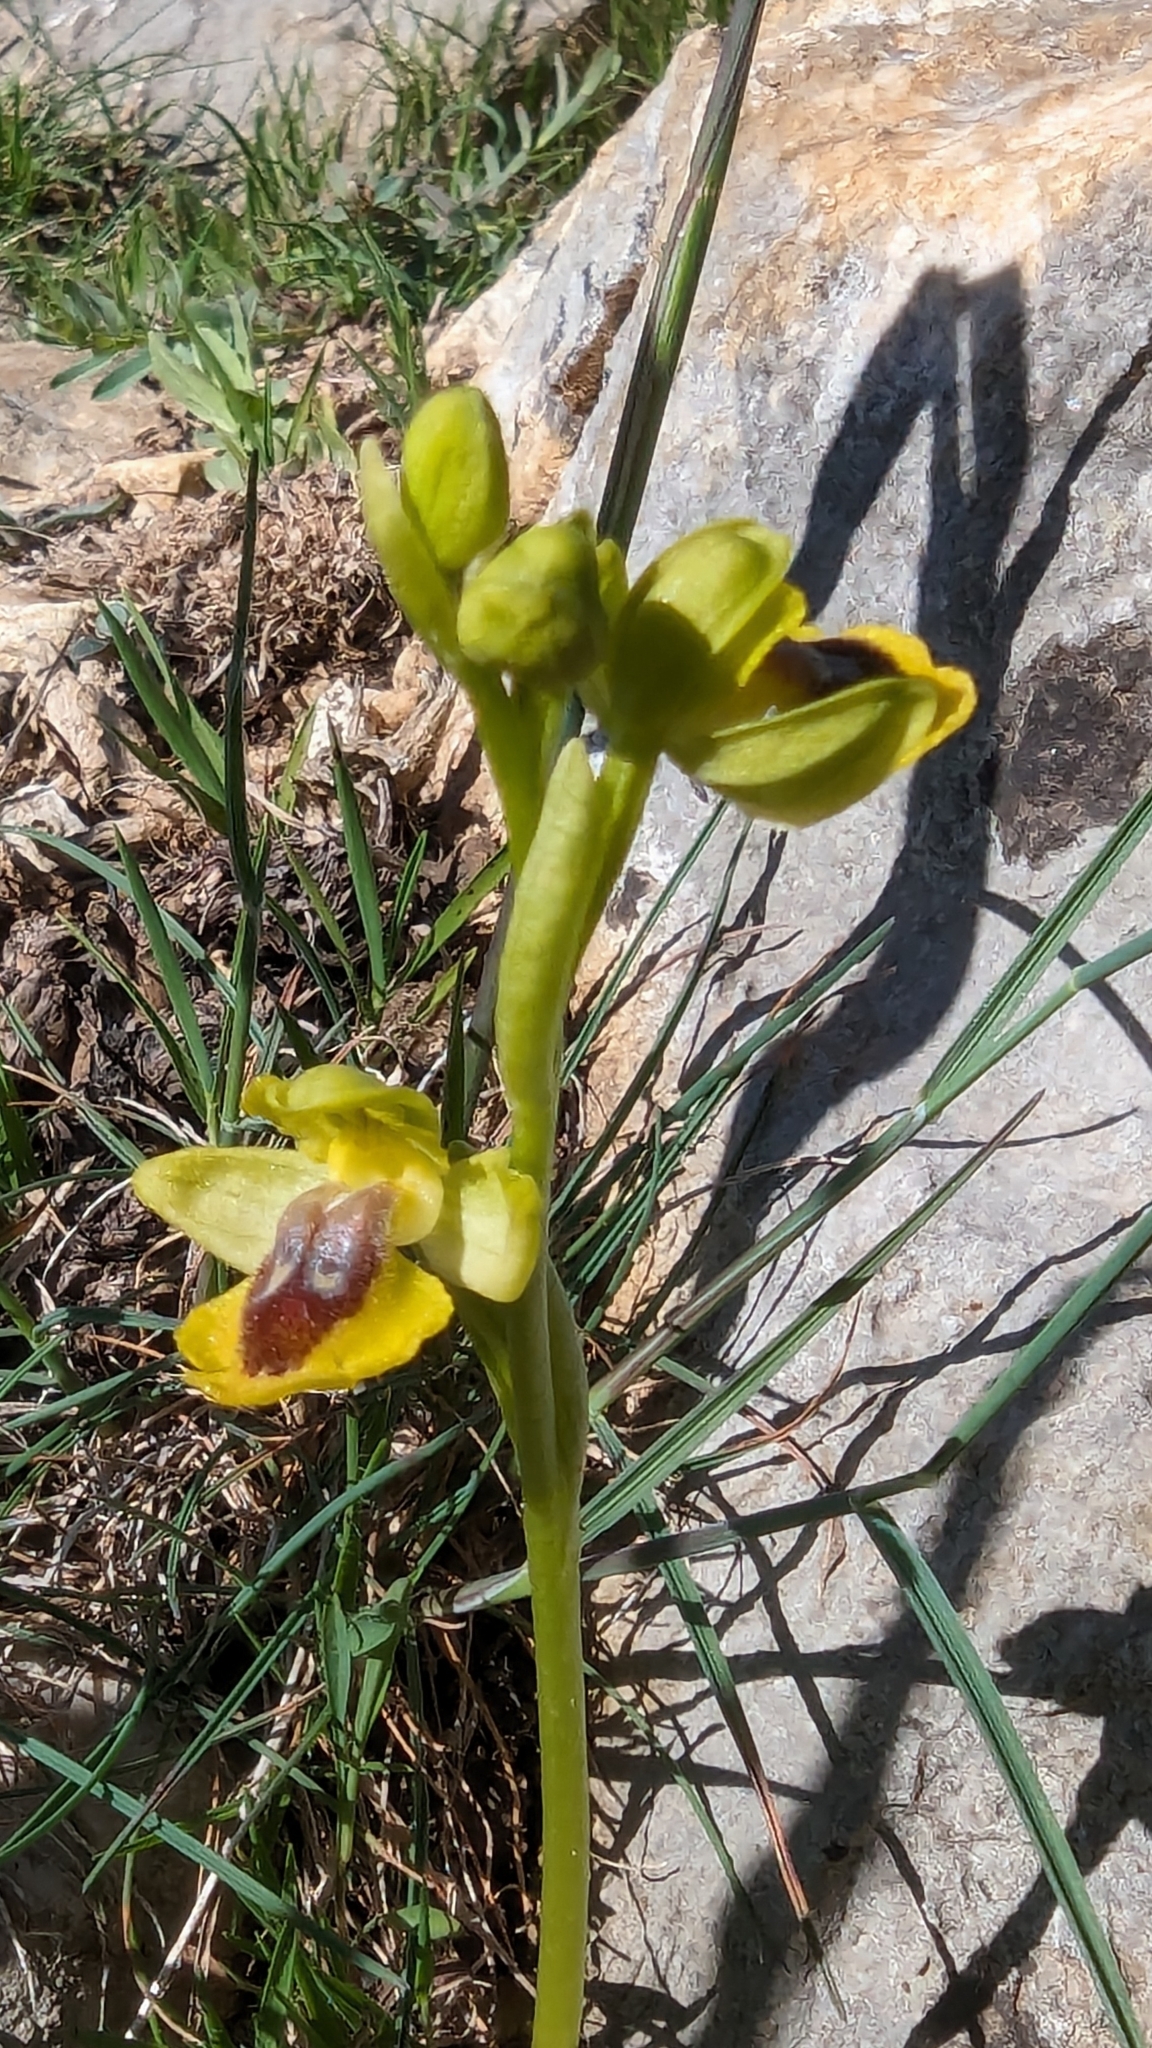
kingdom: Plantae
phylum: Tracheophyta
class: Liliopsida
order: Asparagales
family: Orchidaceae
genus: Ophrys
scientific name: Ophrys lutea
